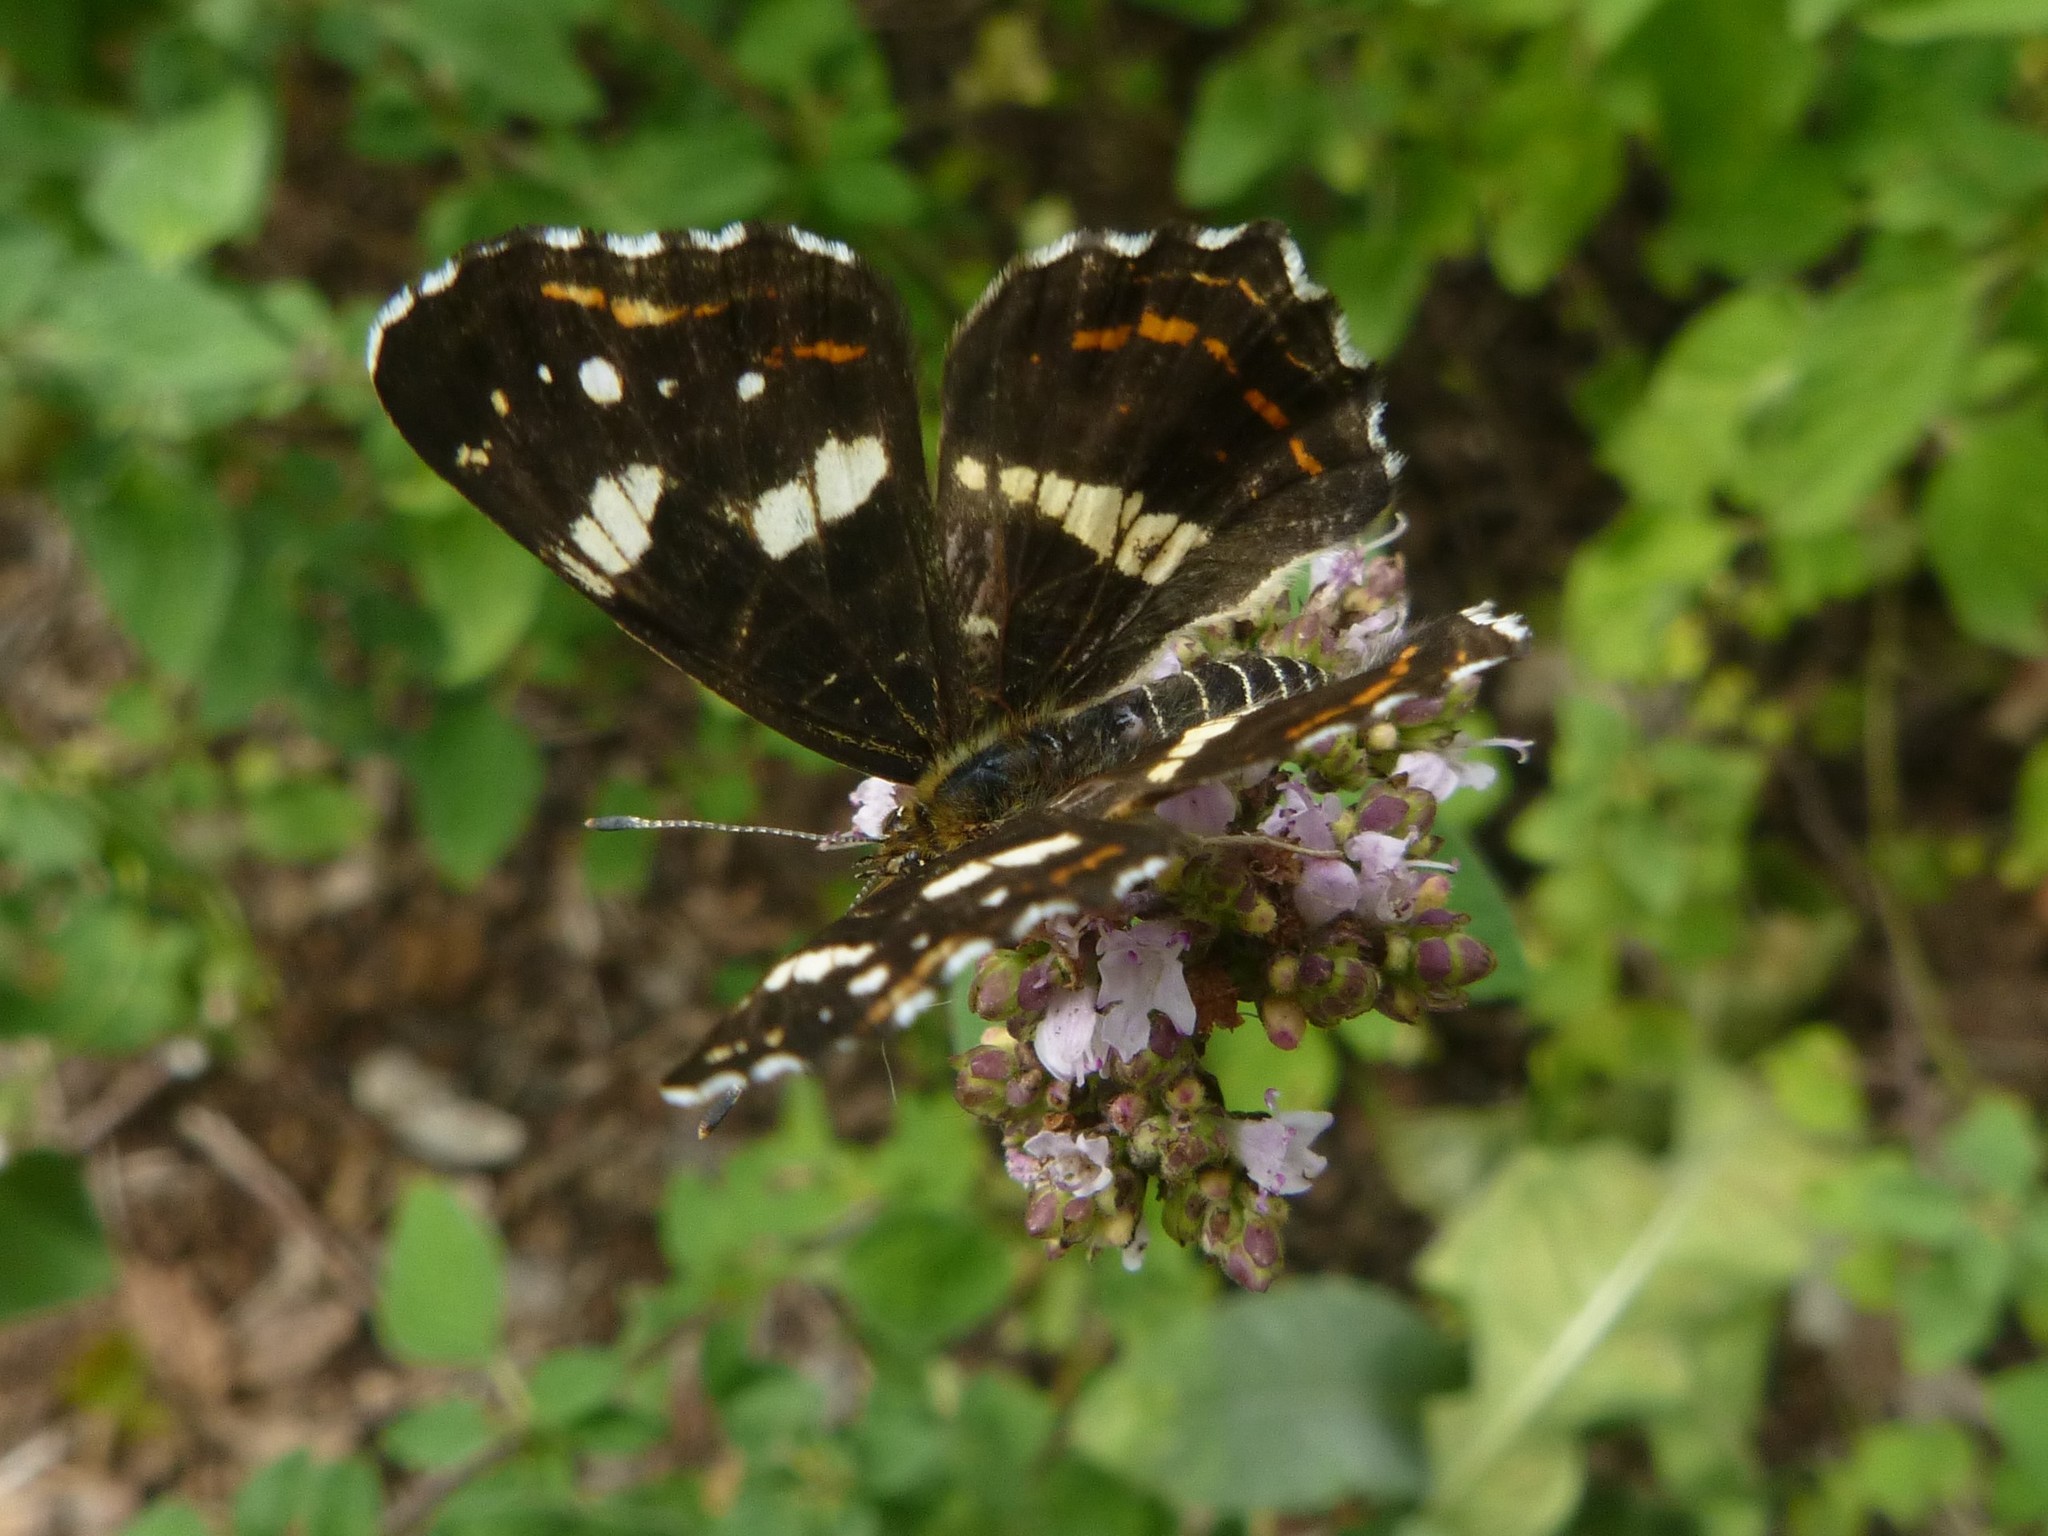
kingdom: Animalia
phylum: Arthropoda
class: Insecta
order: Lepidoptera
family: Nymphalidae
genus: Araschnia
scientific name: Araschnia levana
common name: Map butterfly
